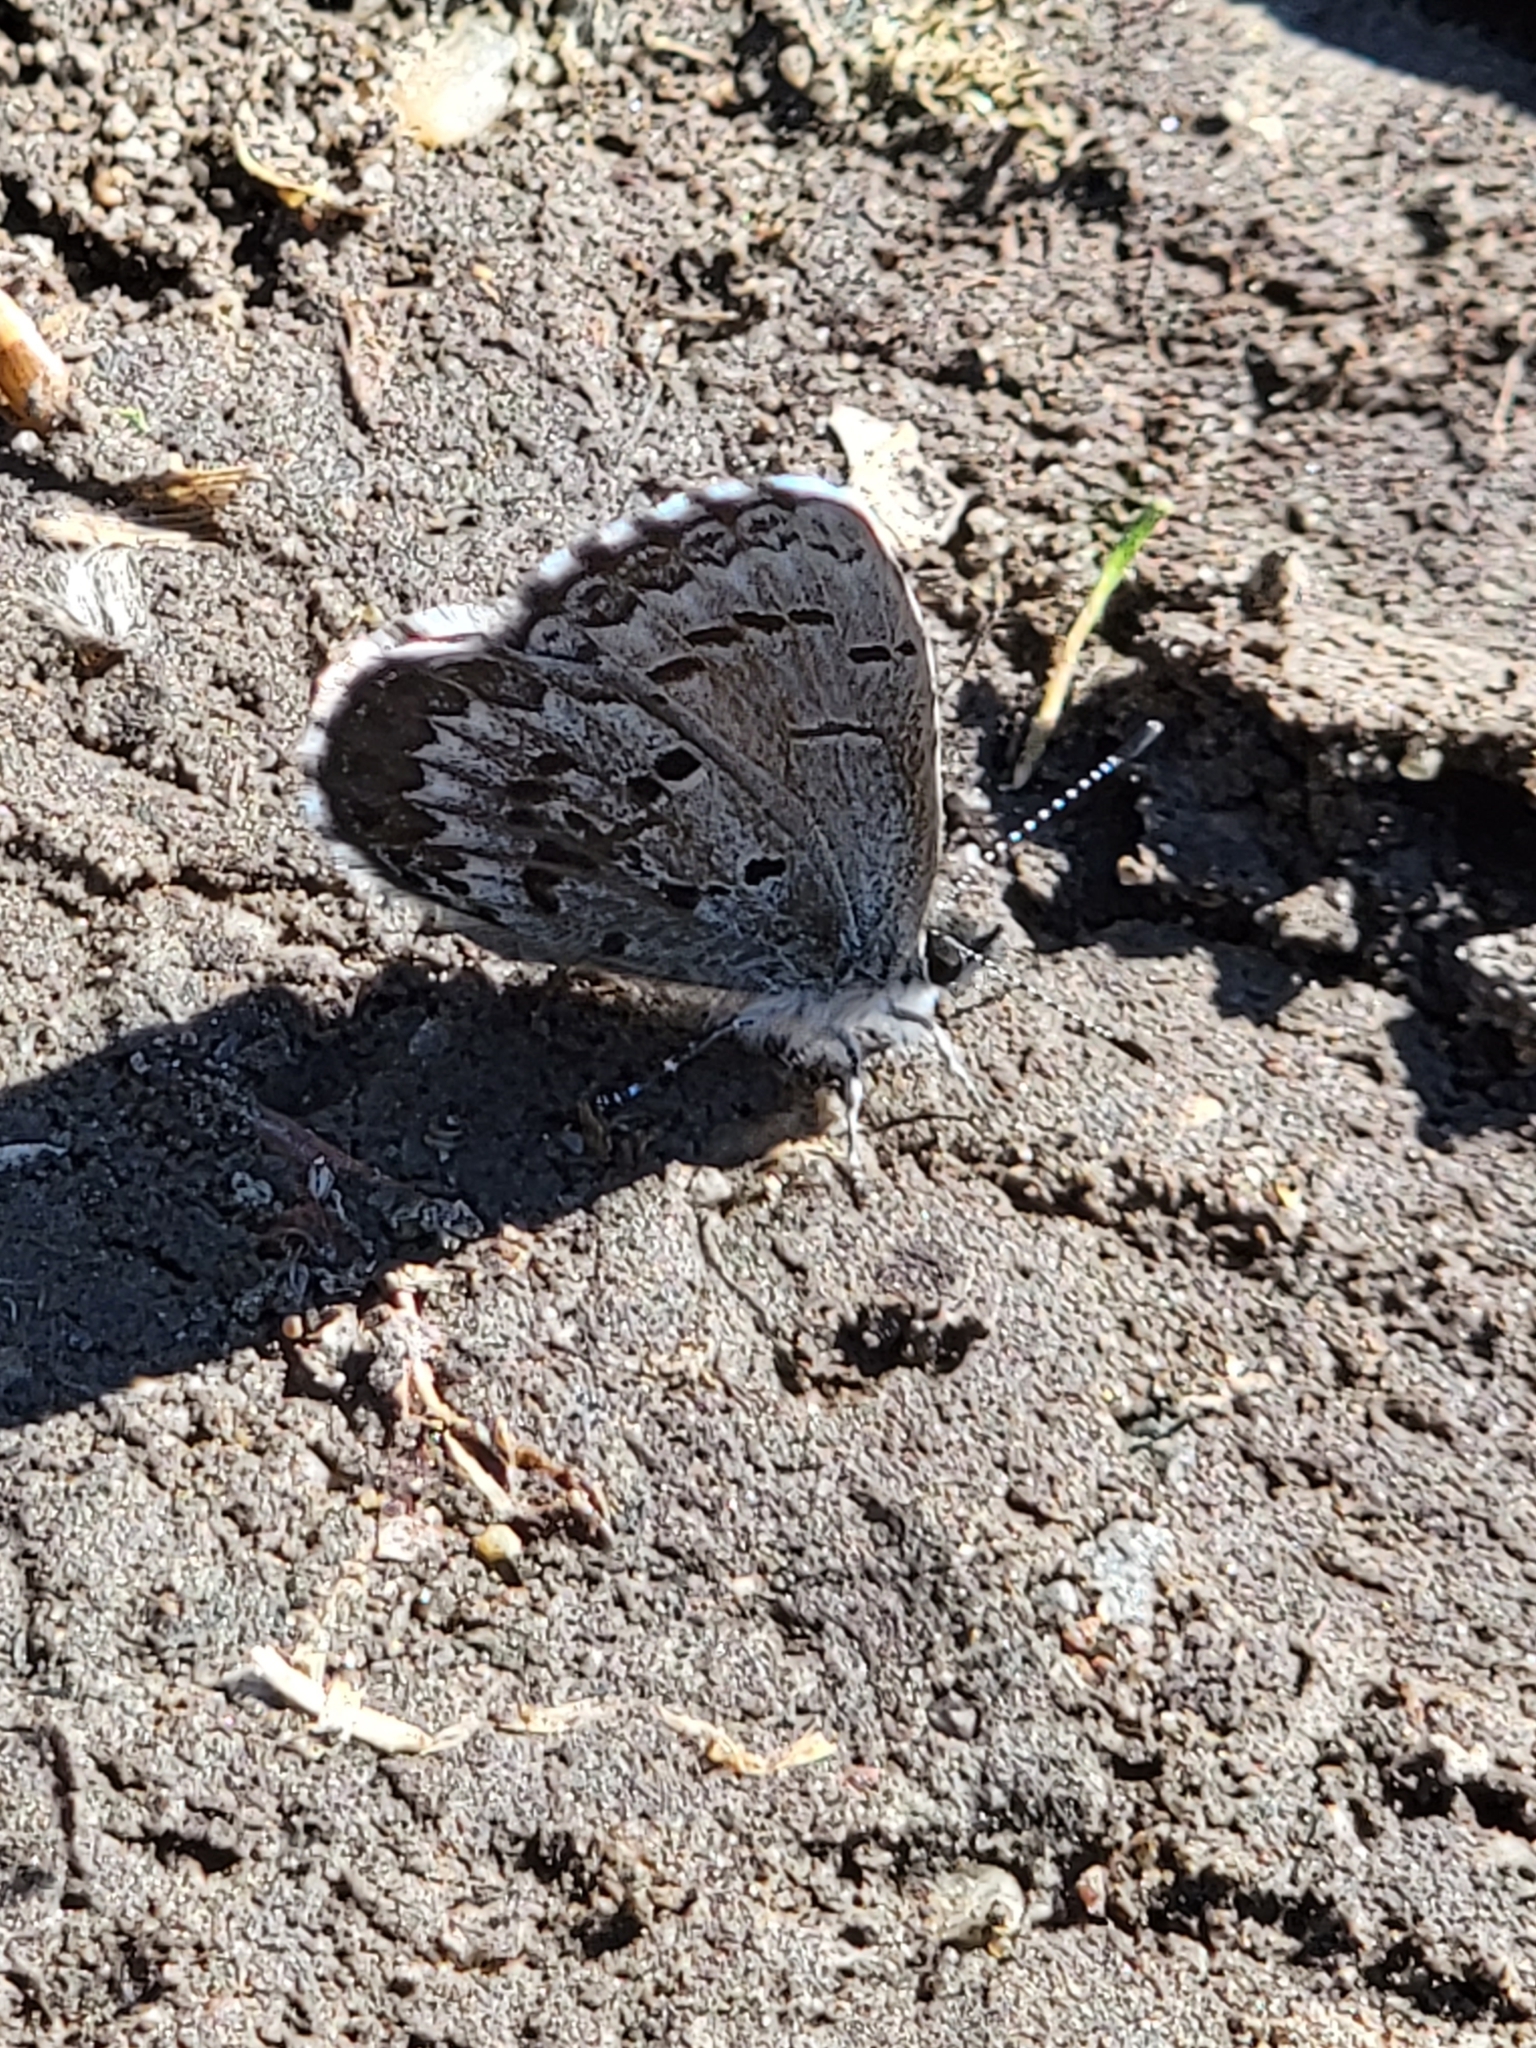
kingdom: Animalia
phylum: Arthropoda
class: Insecta
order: Lepidoptera
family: Lycaenidae
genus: Celastrina
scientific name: Celastrina lucia
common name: Lucia azure
